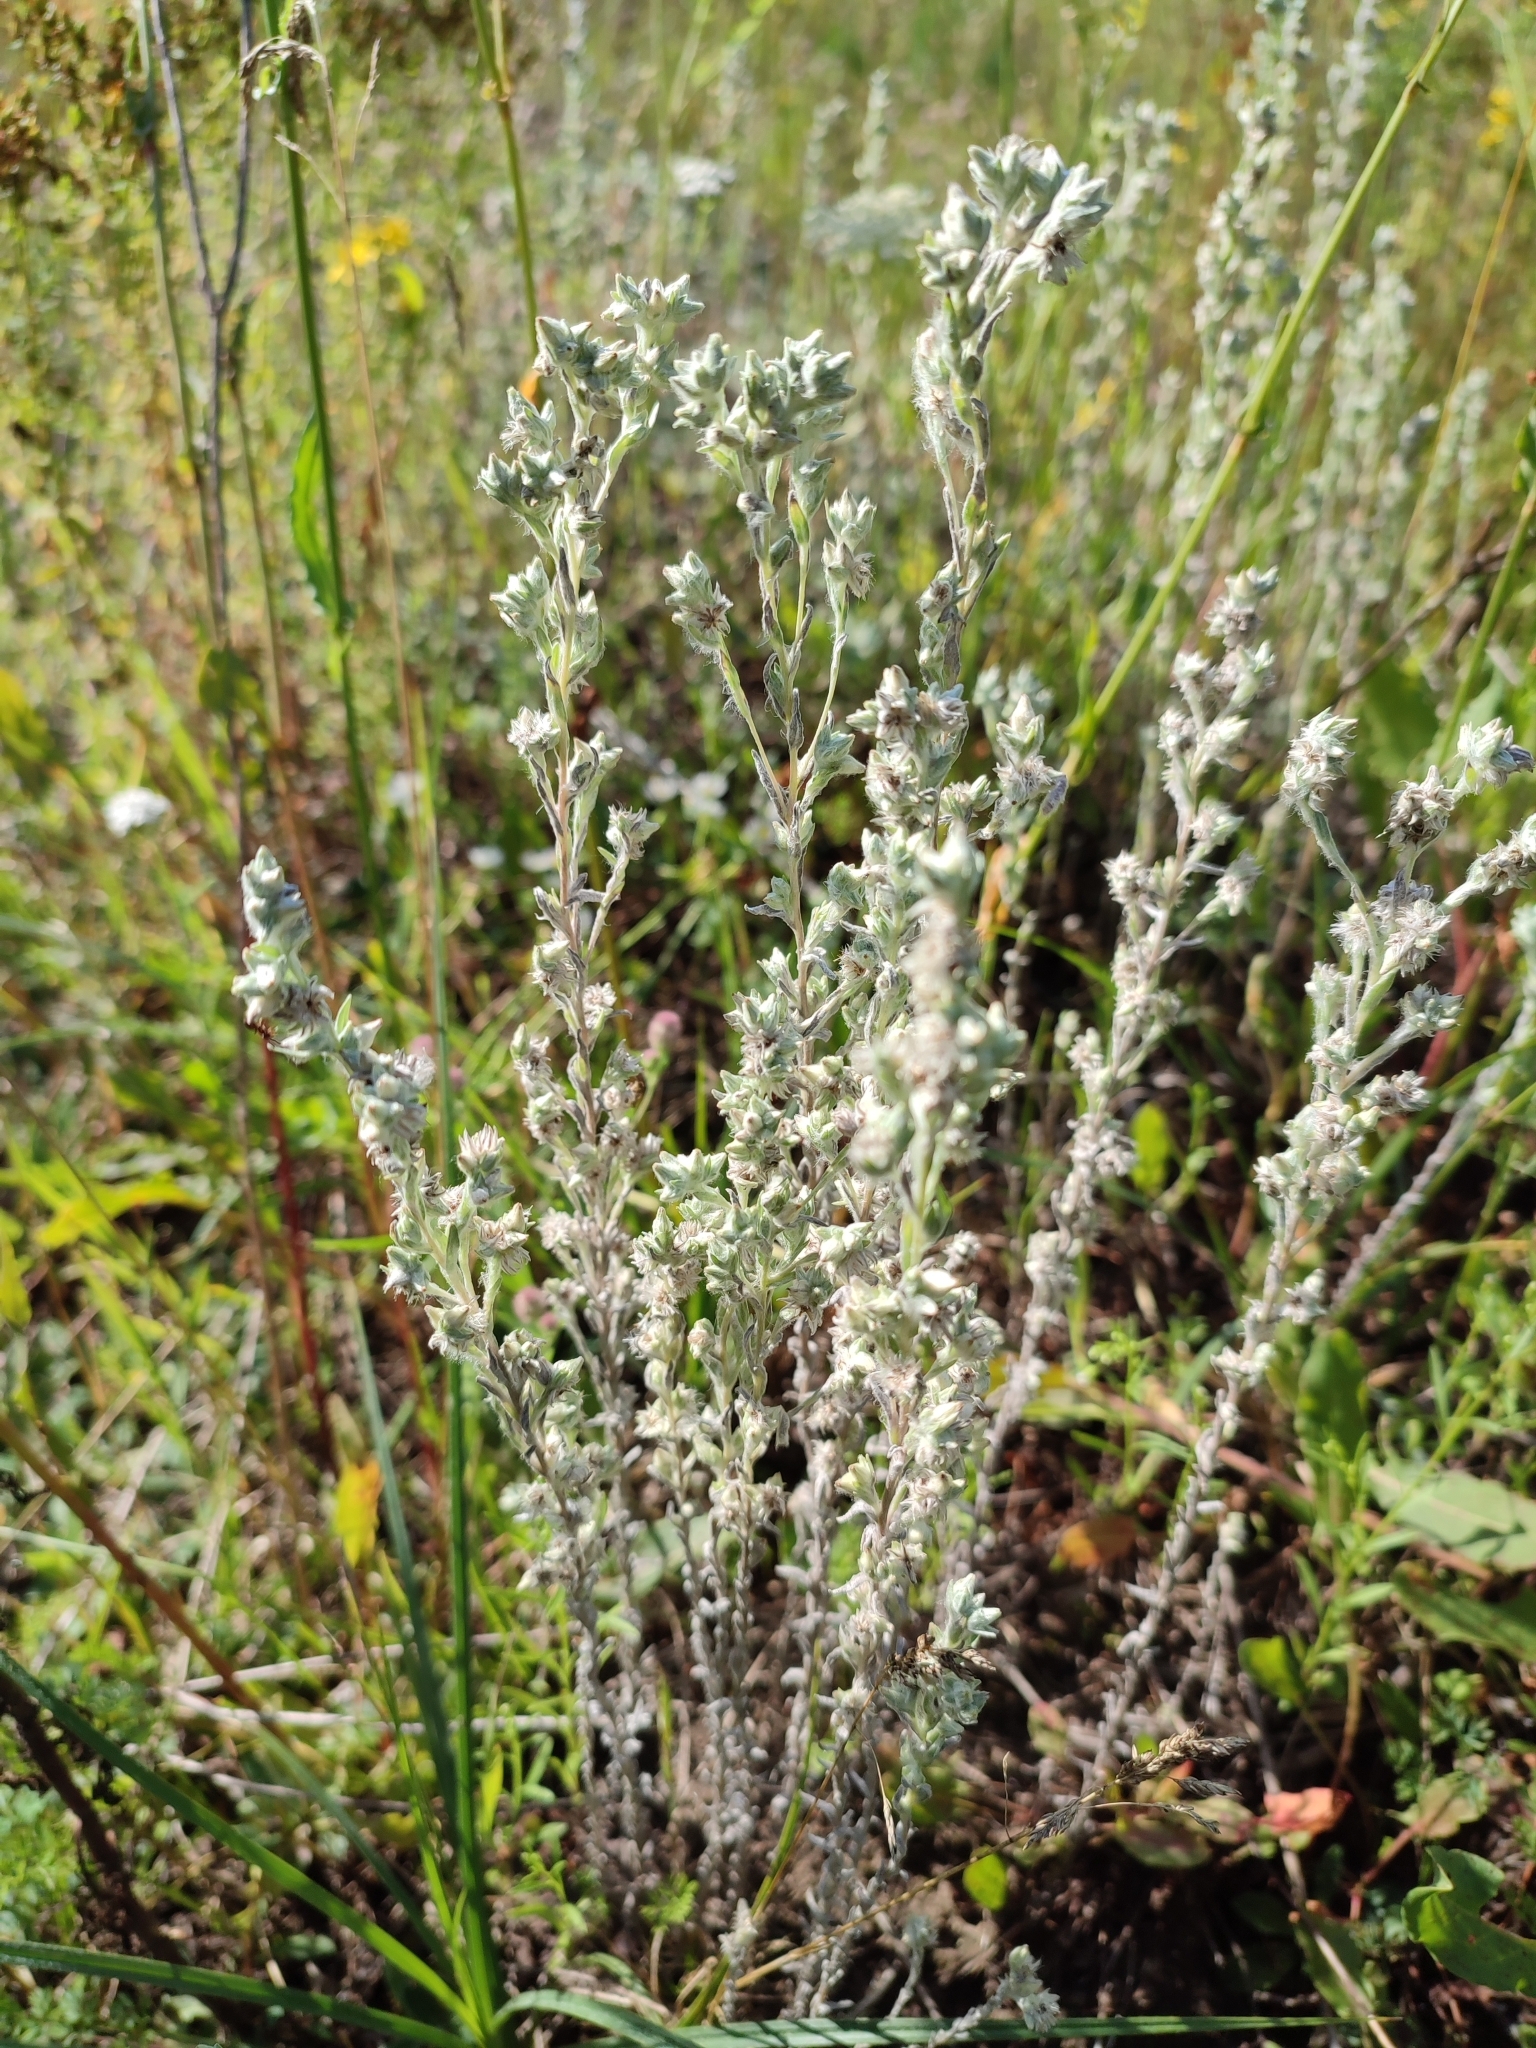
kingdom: Plantae
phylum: Tracheophyta
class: Magnoliopsida
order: Asterales
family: Asteraceae
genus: Filago
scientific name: Filago arvensis
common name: Field cudweed
